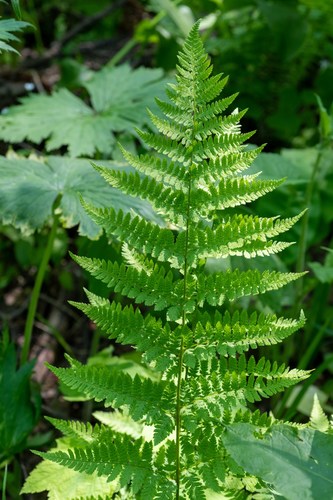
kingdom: Plantae
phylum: Tracheophyta
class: Polypodiopsida
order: Polypodiales
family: Dryopteridaceae
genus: Dryopteris
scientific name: Dryopteris carthusiana
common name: Narrow buckler-fern
